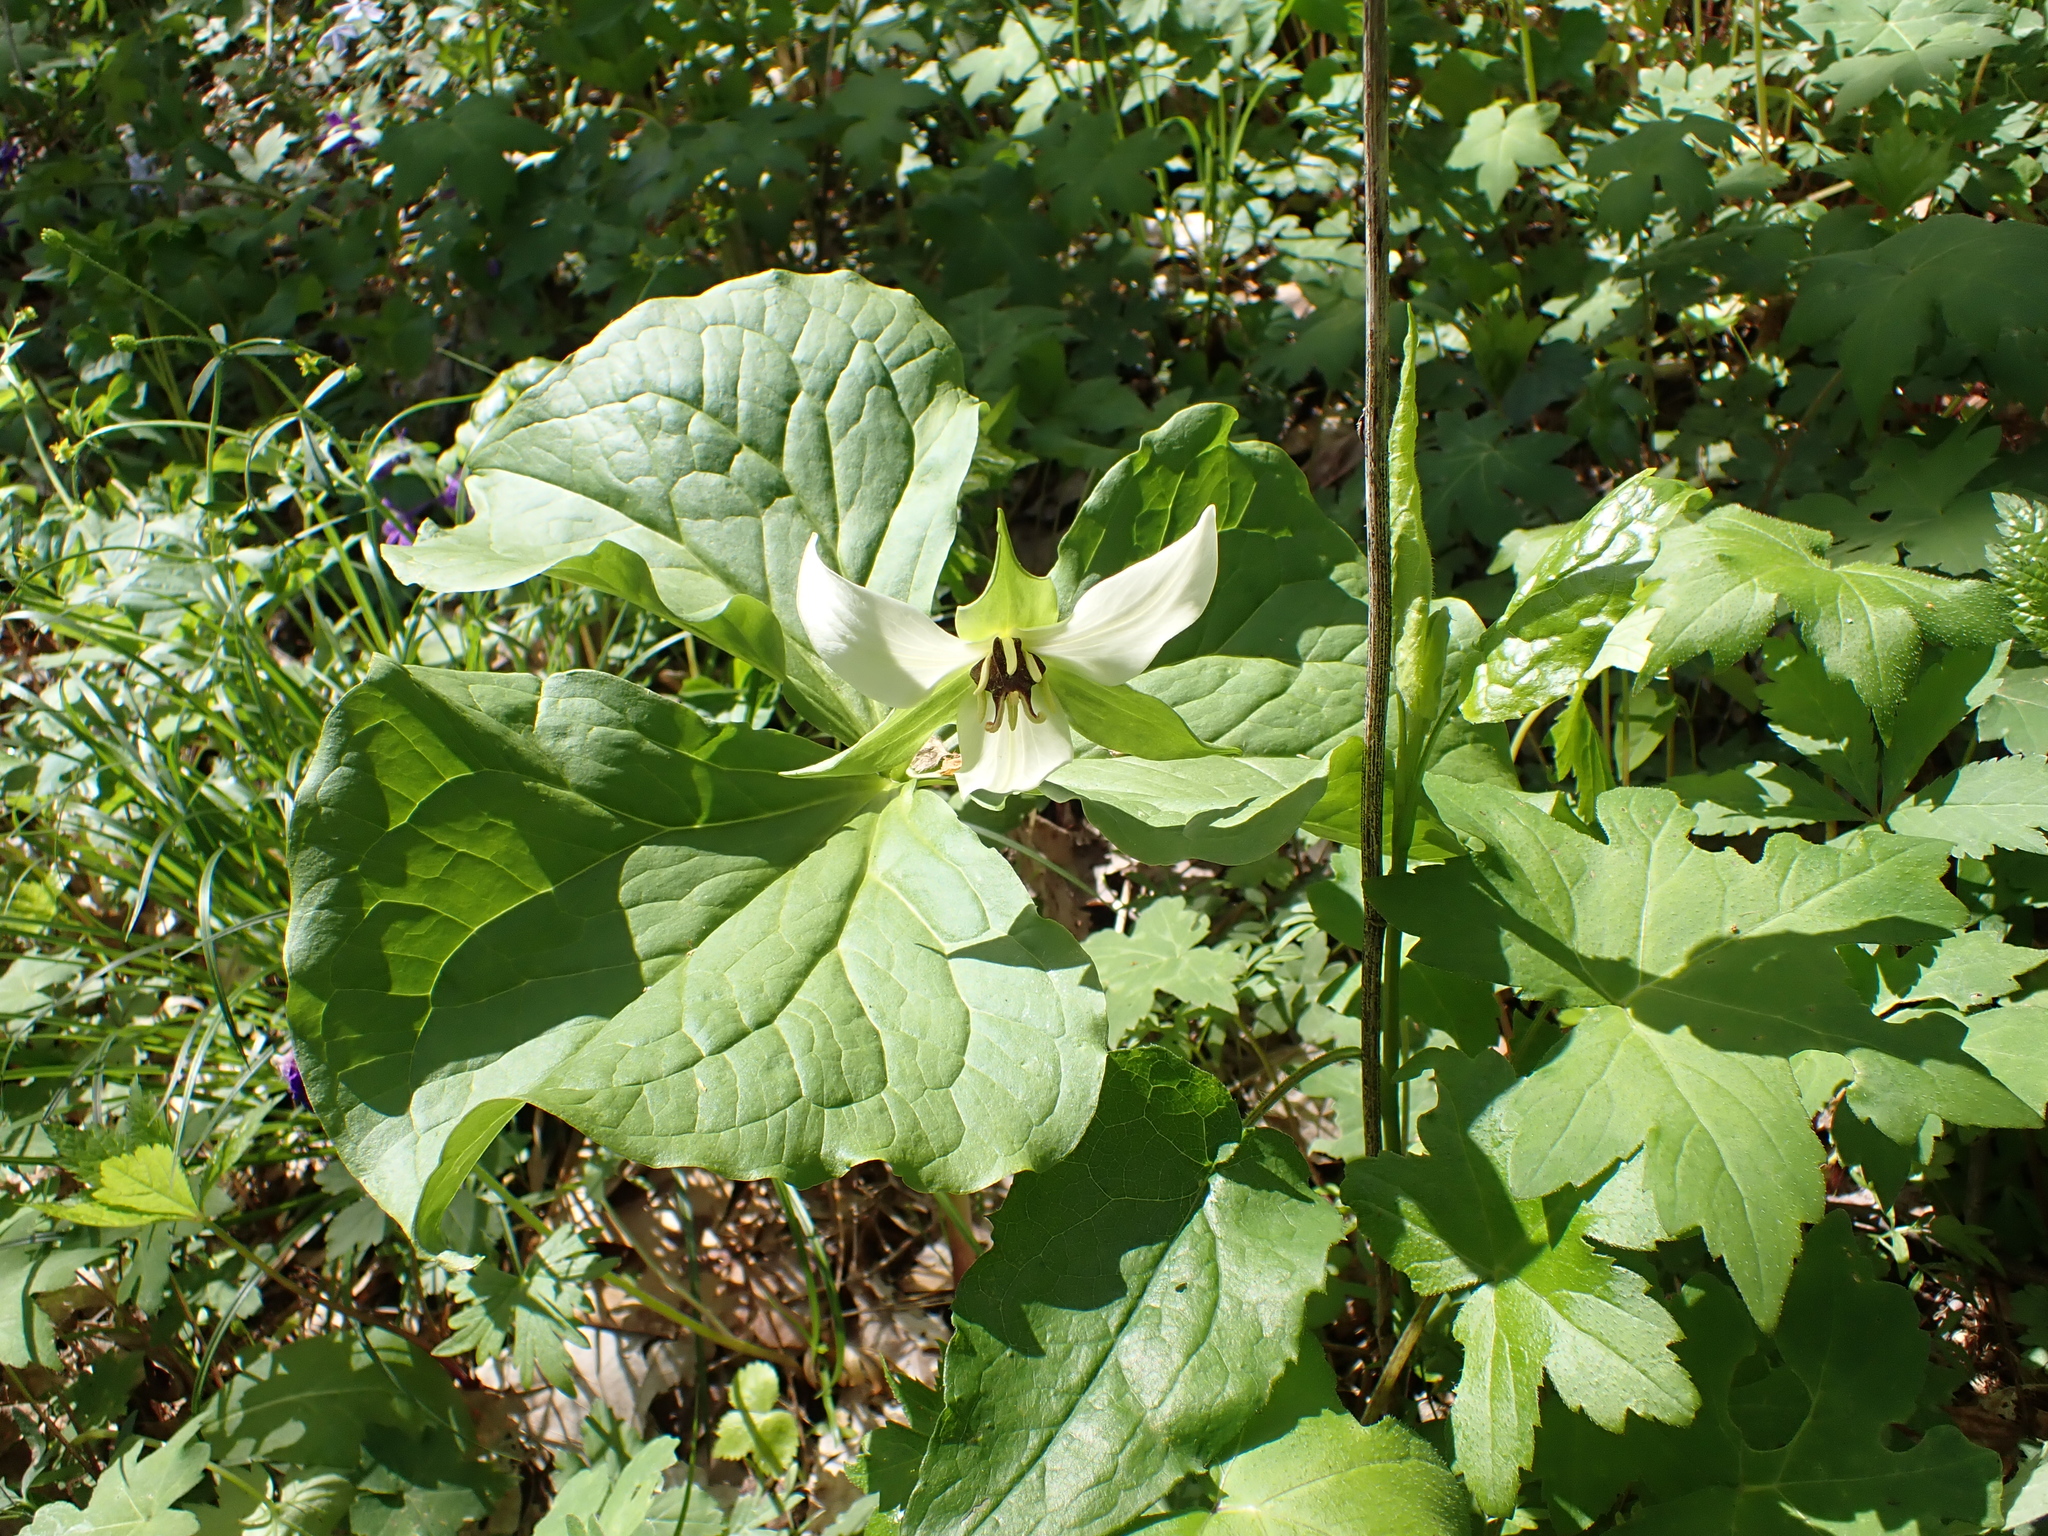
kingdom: Plantae
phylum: Tracheophyta
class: Liliopsida
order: Liliales
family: Melanthiaceae
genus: Trillium
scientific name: Trillium erectum
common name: Purple trillium
